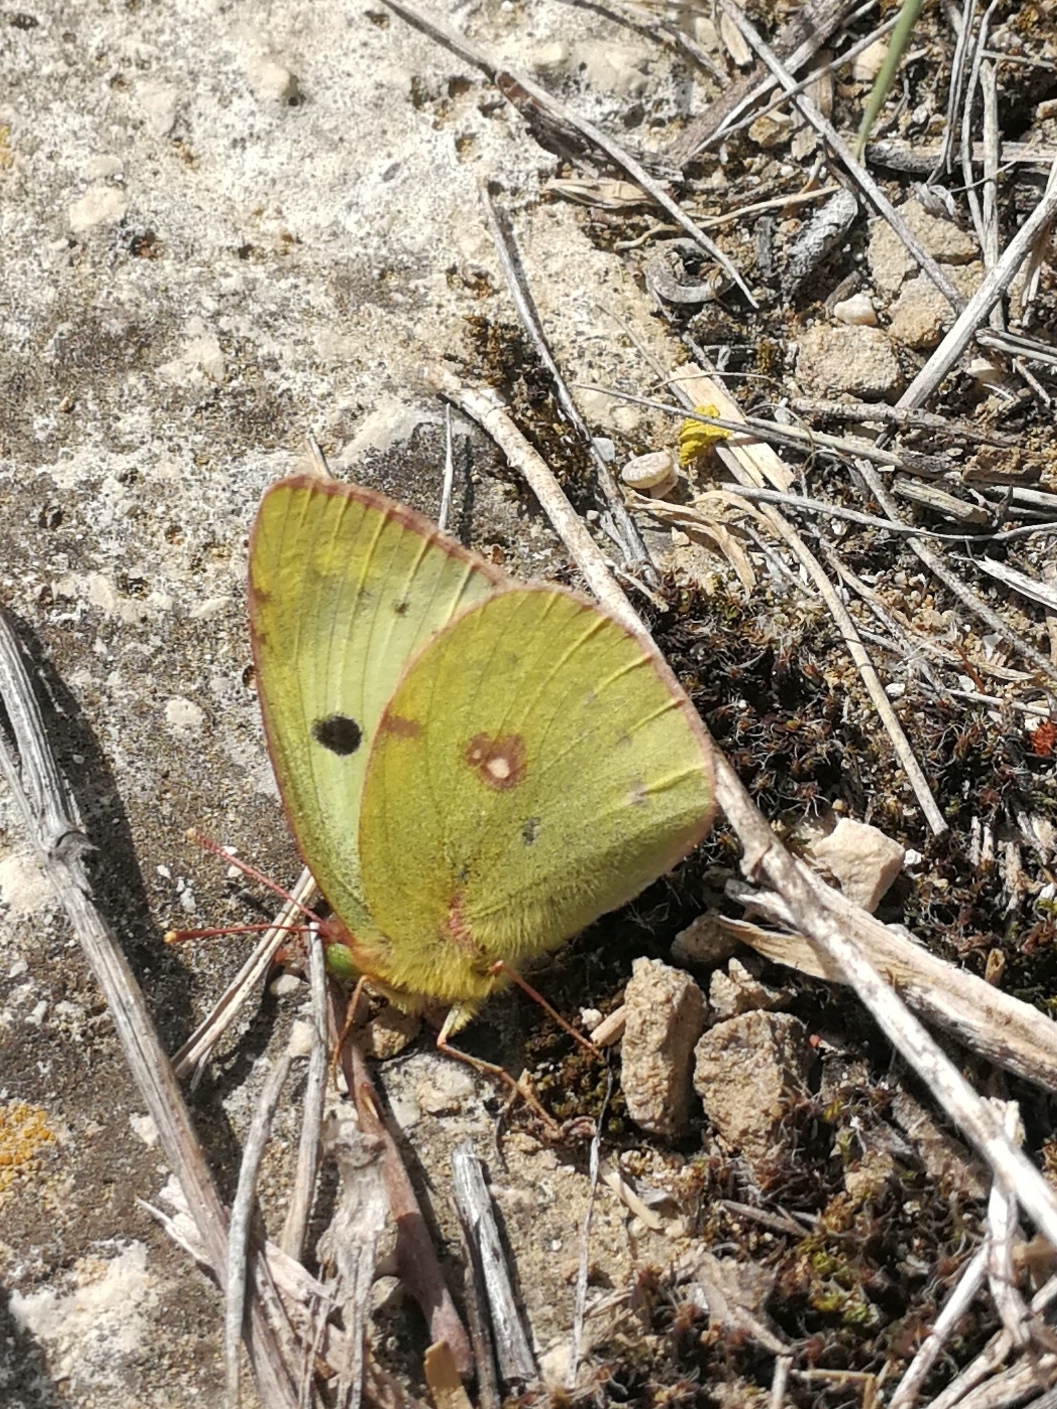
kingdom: Animalia
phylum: Arthropoda
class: Insecta
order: Lepidoptera
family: Pieridae
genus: Colias
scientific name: Colias alfacariensis
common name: Berger's clouded yellow
